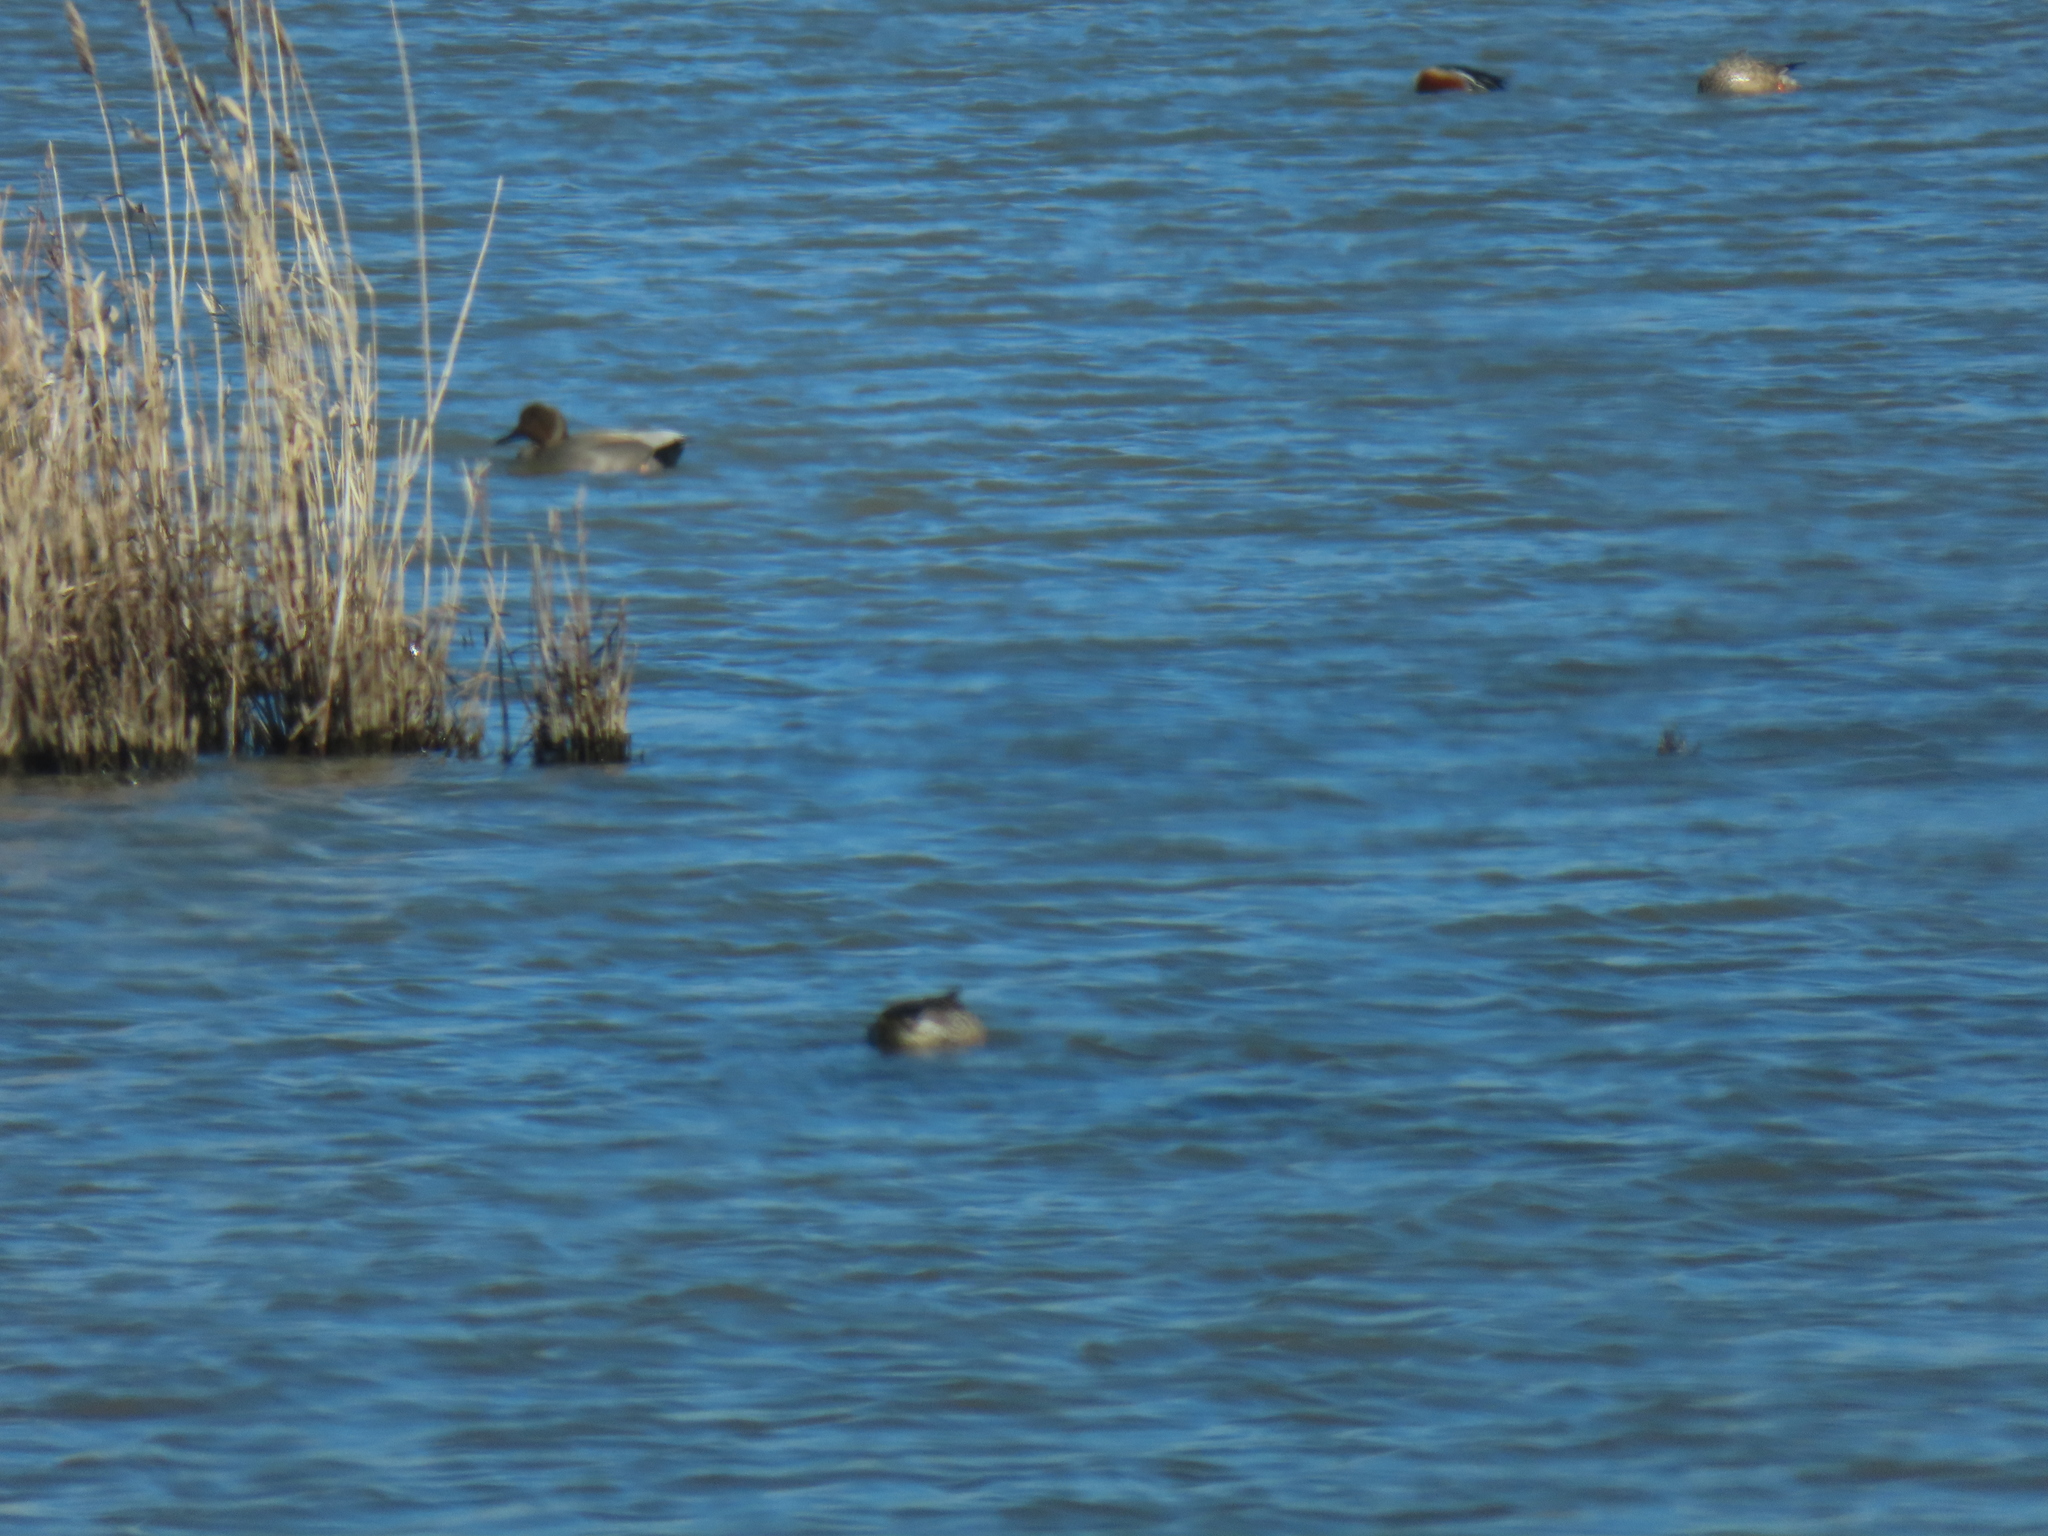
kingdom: Animalia
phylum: Chordata
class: Aves
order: Anseriformes
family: Anatidae
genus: Mareca
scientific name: Mareca strepera
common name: Gadwall
